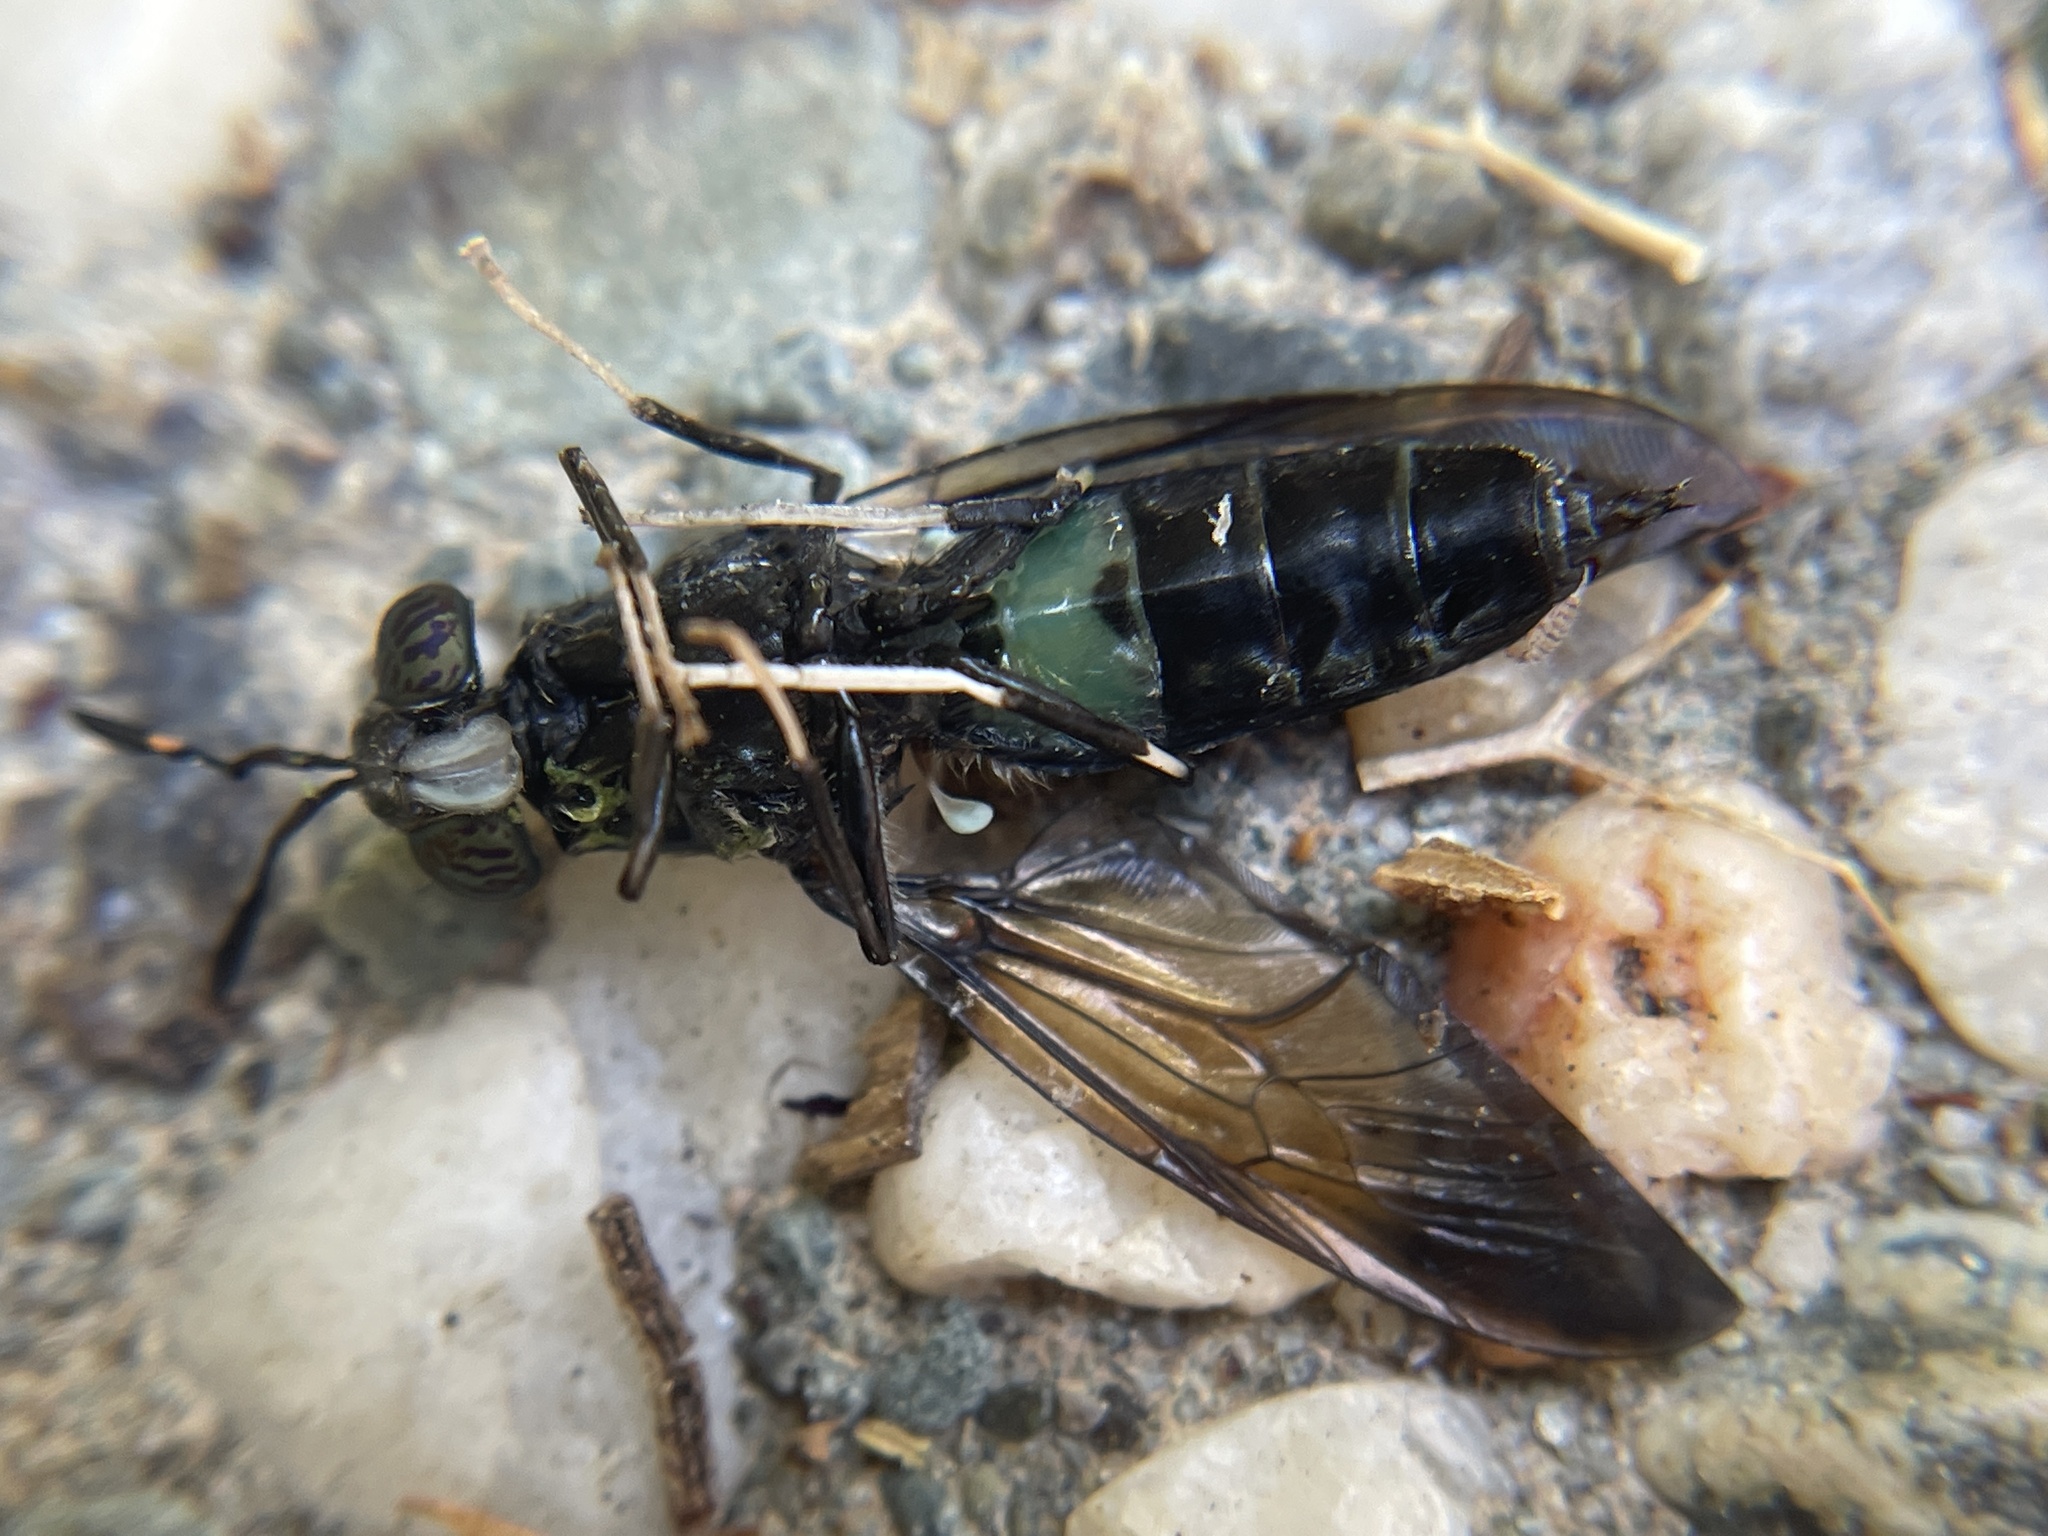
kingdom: Animalia
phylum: Arthropoda
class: Insecta
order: Diptera
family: Stratiomyidae
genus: Hermetia
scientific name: Hermetia illucens
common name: Black soldier fly
